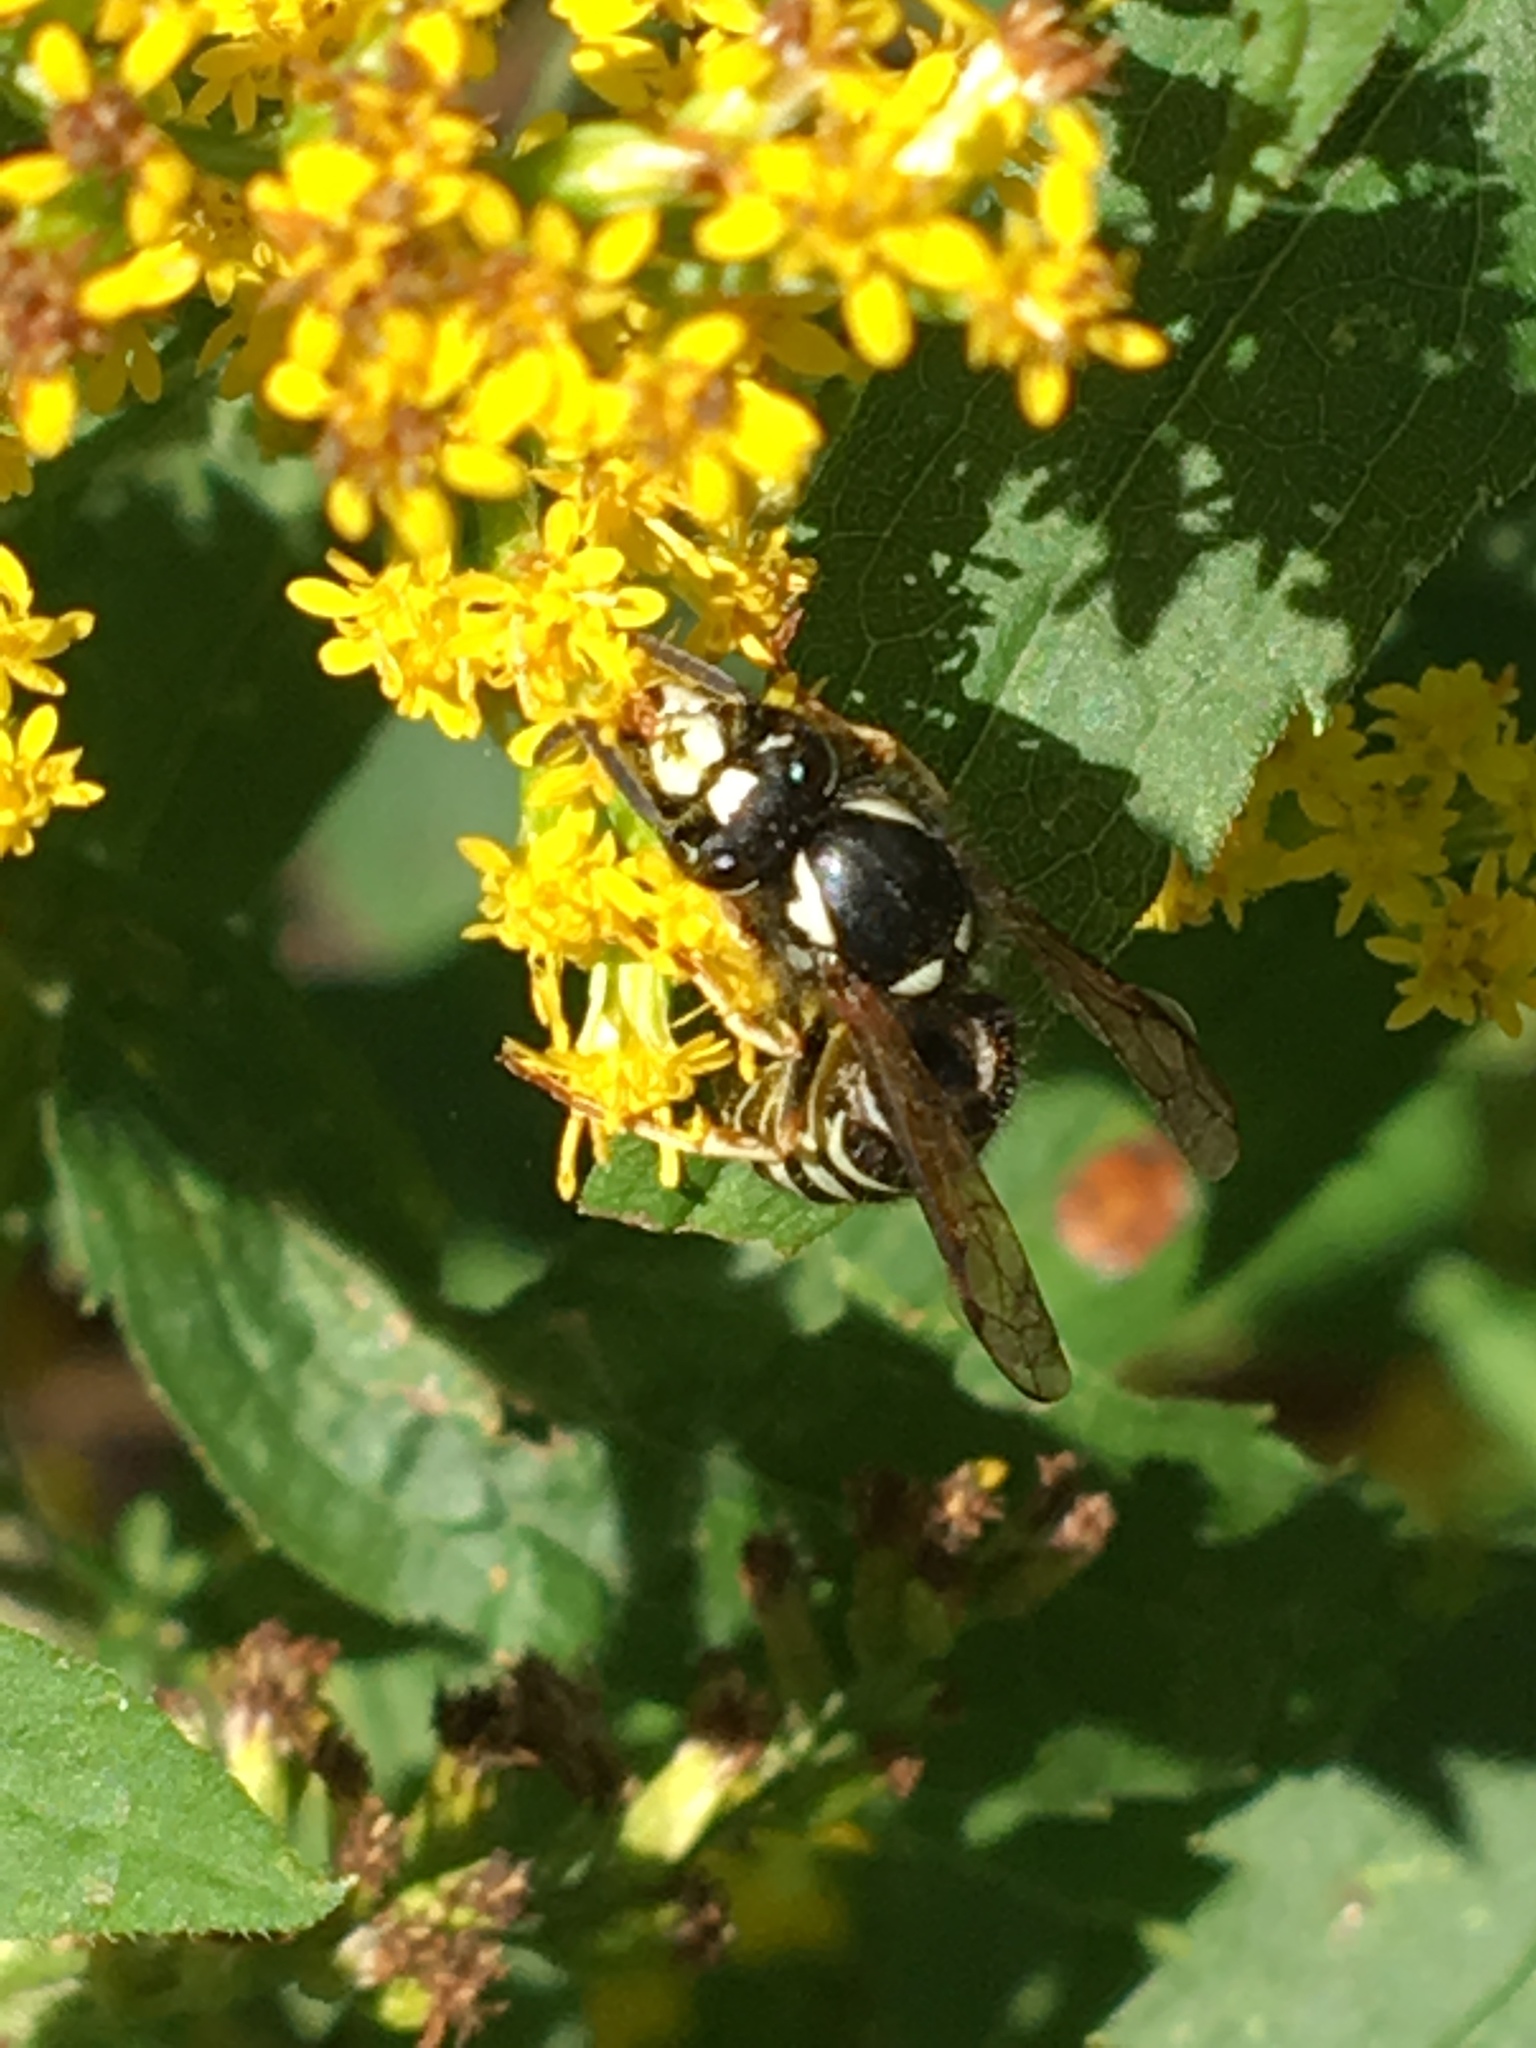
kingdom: Animalia
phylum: Arthropoda
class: Insecta
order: Hymenoptera
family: Vespidae
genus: Dolichovespula
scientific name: Dolichovespula adulterina
